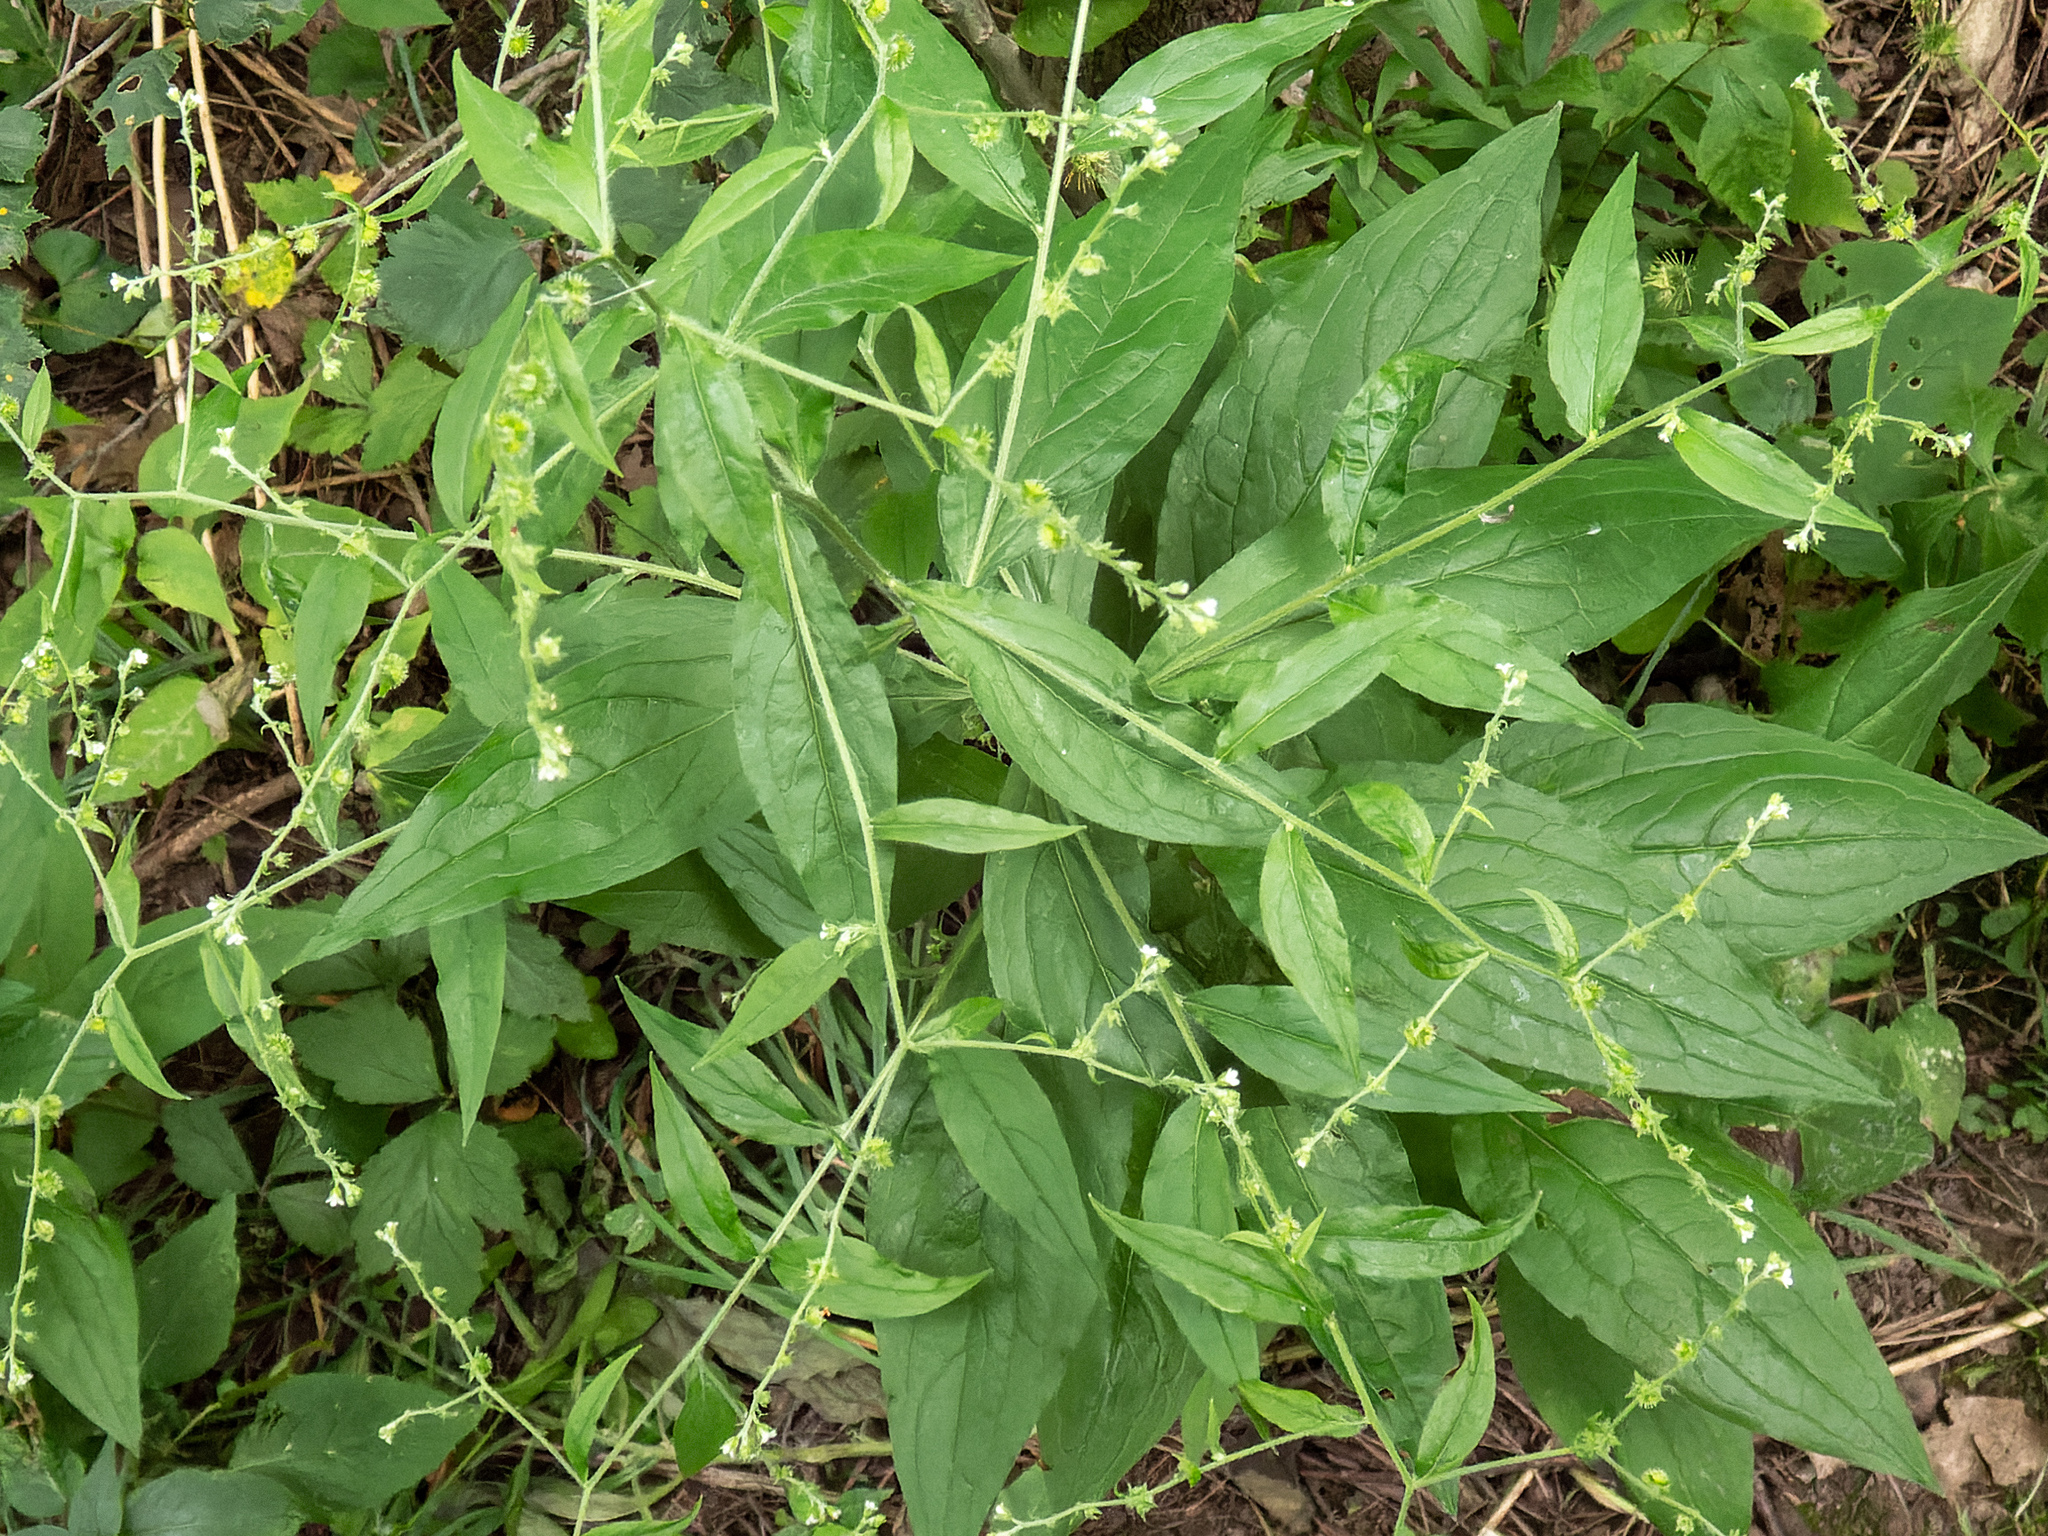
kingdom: Plantae
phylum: Tracheophyta
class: Magnoliopsida
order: Boraginales
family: Boraginaceae
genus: Hackelia
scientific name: Hackelia virginiana
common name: Beggar's-lice
